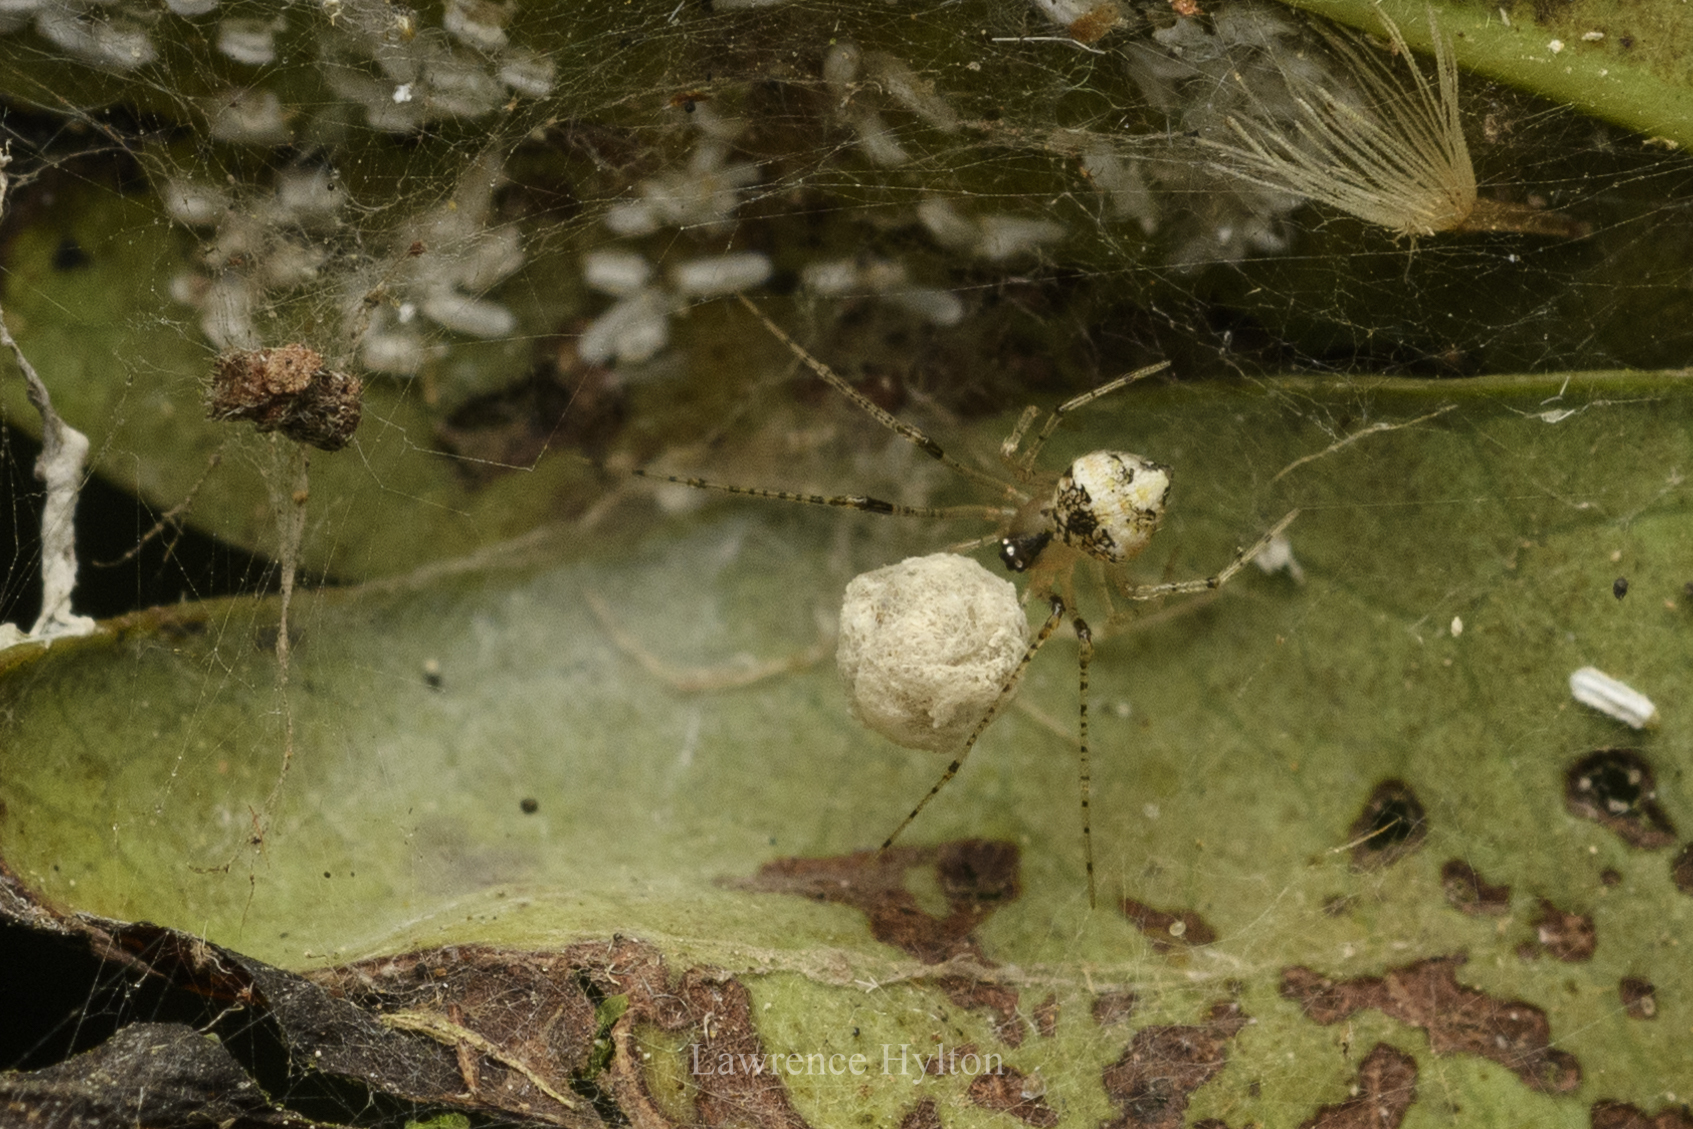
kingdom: Animalia
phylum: Arthropoda
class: Arachnida
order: Araneae
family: Theridiidae
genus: Theridion
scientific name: Theridion xianfengense
